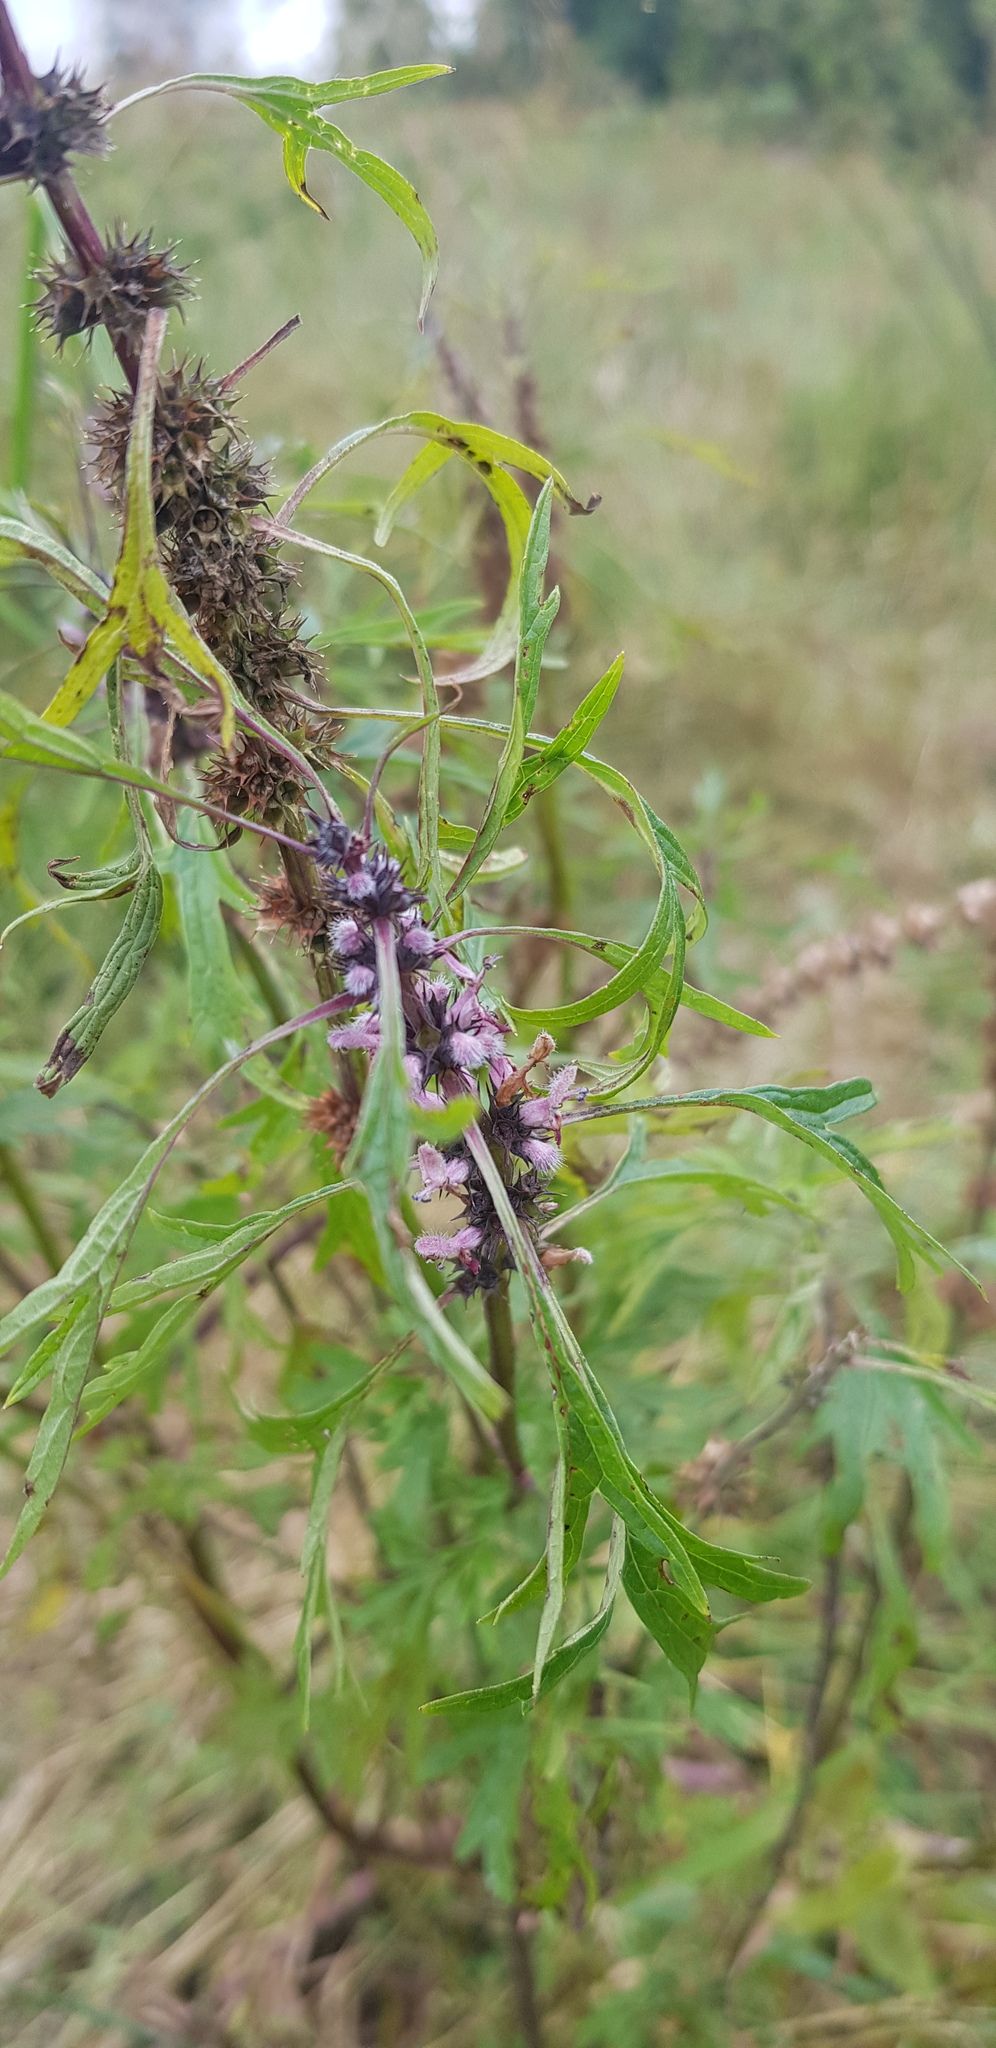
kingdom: Plantae
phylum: Tracheophyta
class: Magnoliopsida
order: Lamiales
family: Lamiaceae
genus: Leonurus
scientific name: Leonurus deminutus
